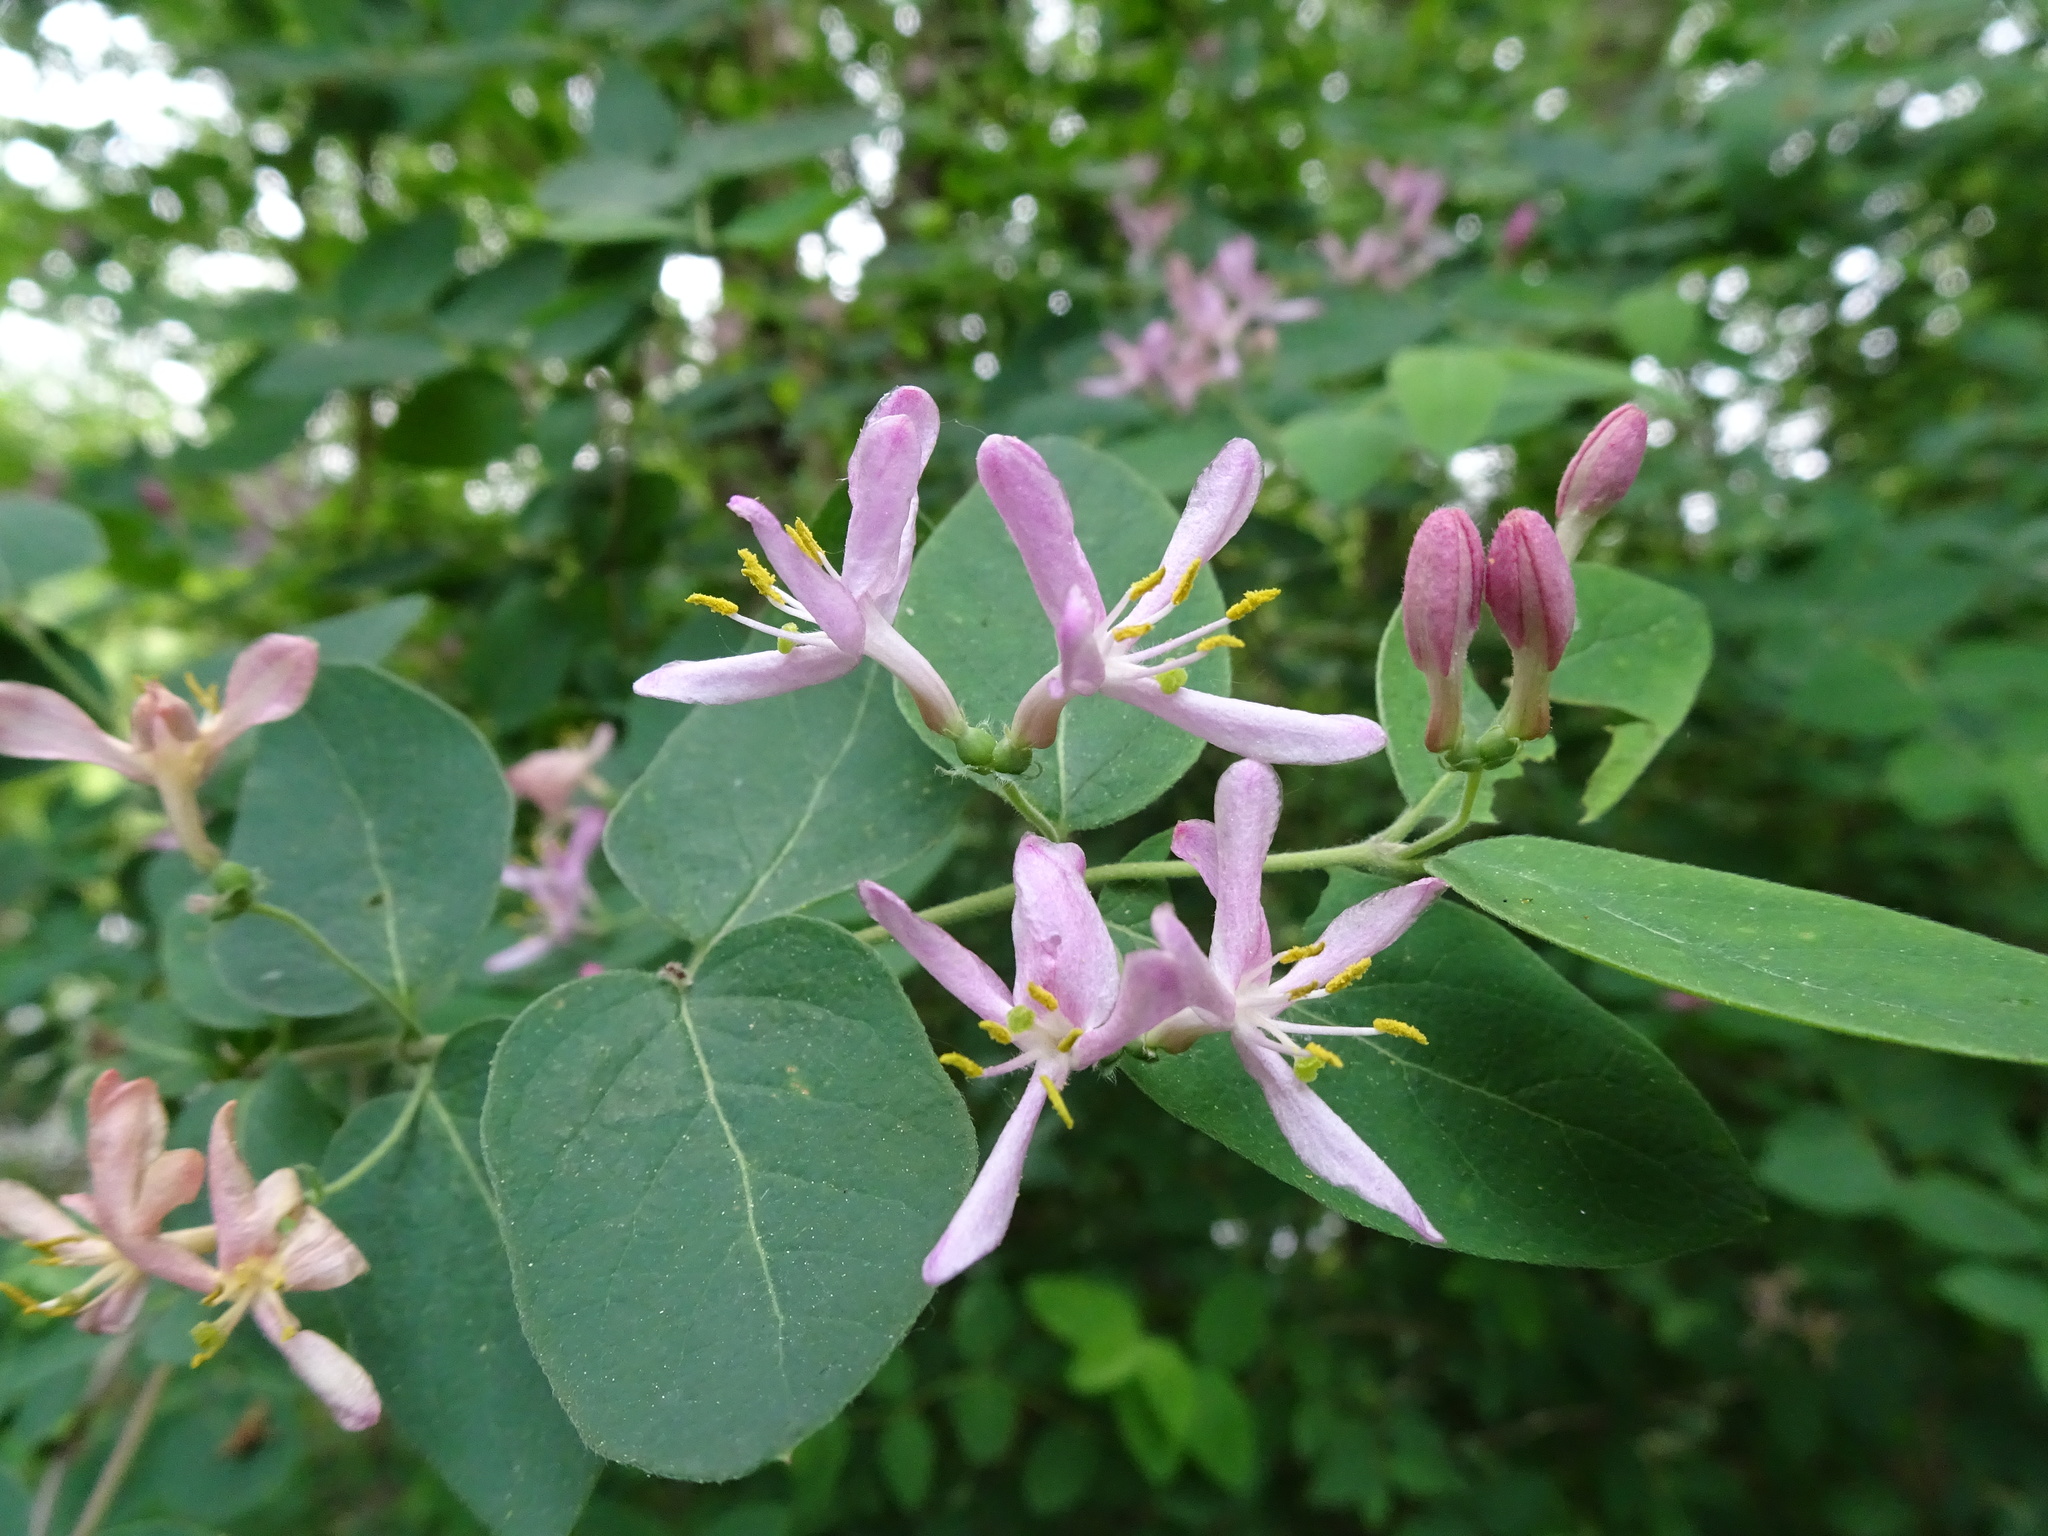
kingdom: Plantae
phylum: Tracheophyta
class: Magnoliopsida
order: Dipsacales
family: Caprifoliaceae
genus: Lonicera
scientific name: Lonicera tatarica
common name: Tatarian honeysuckle
